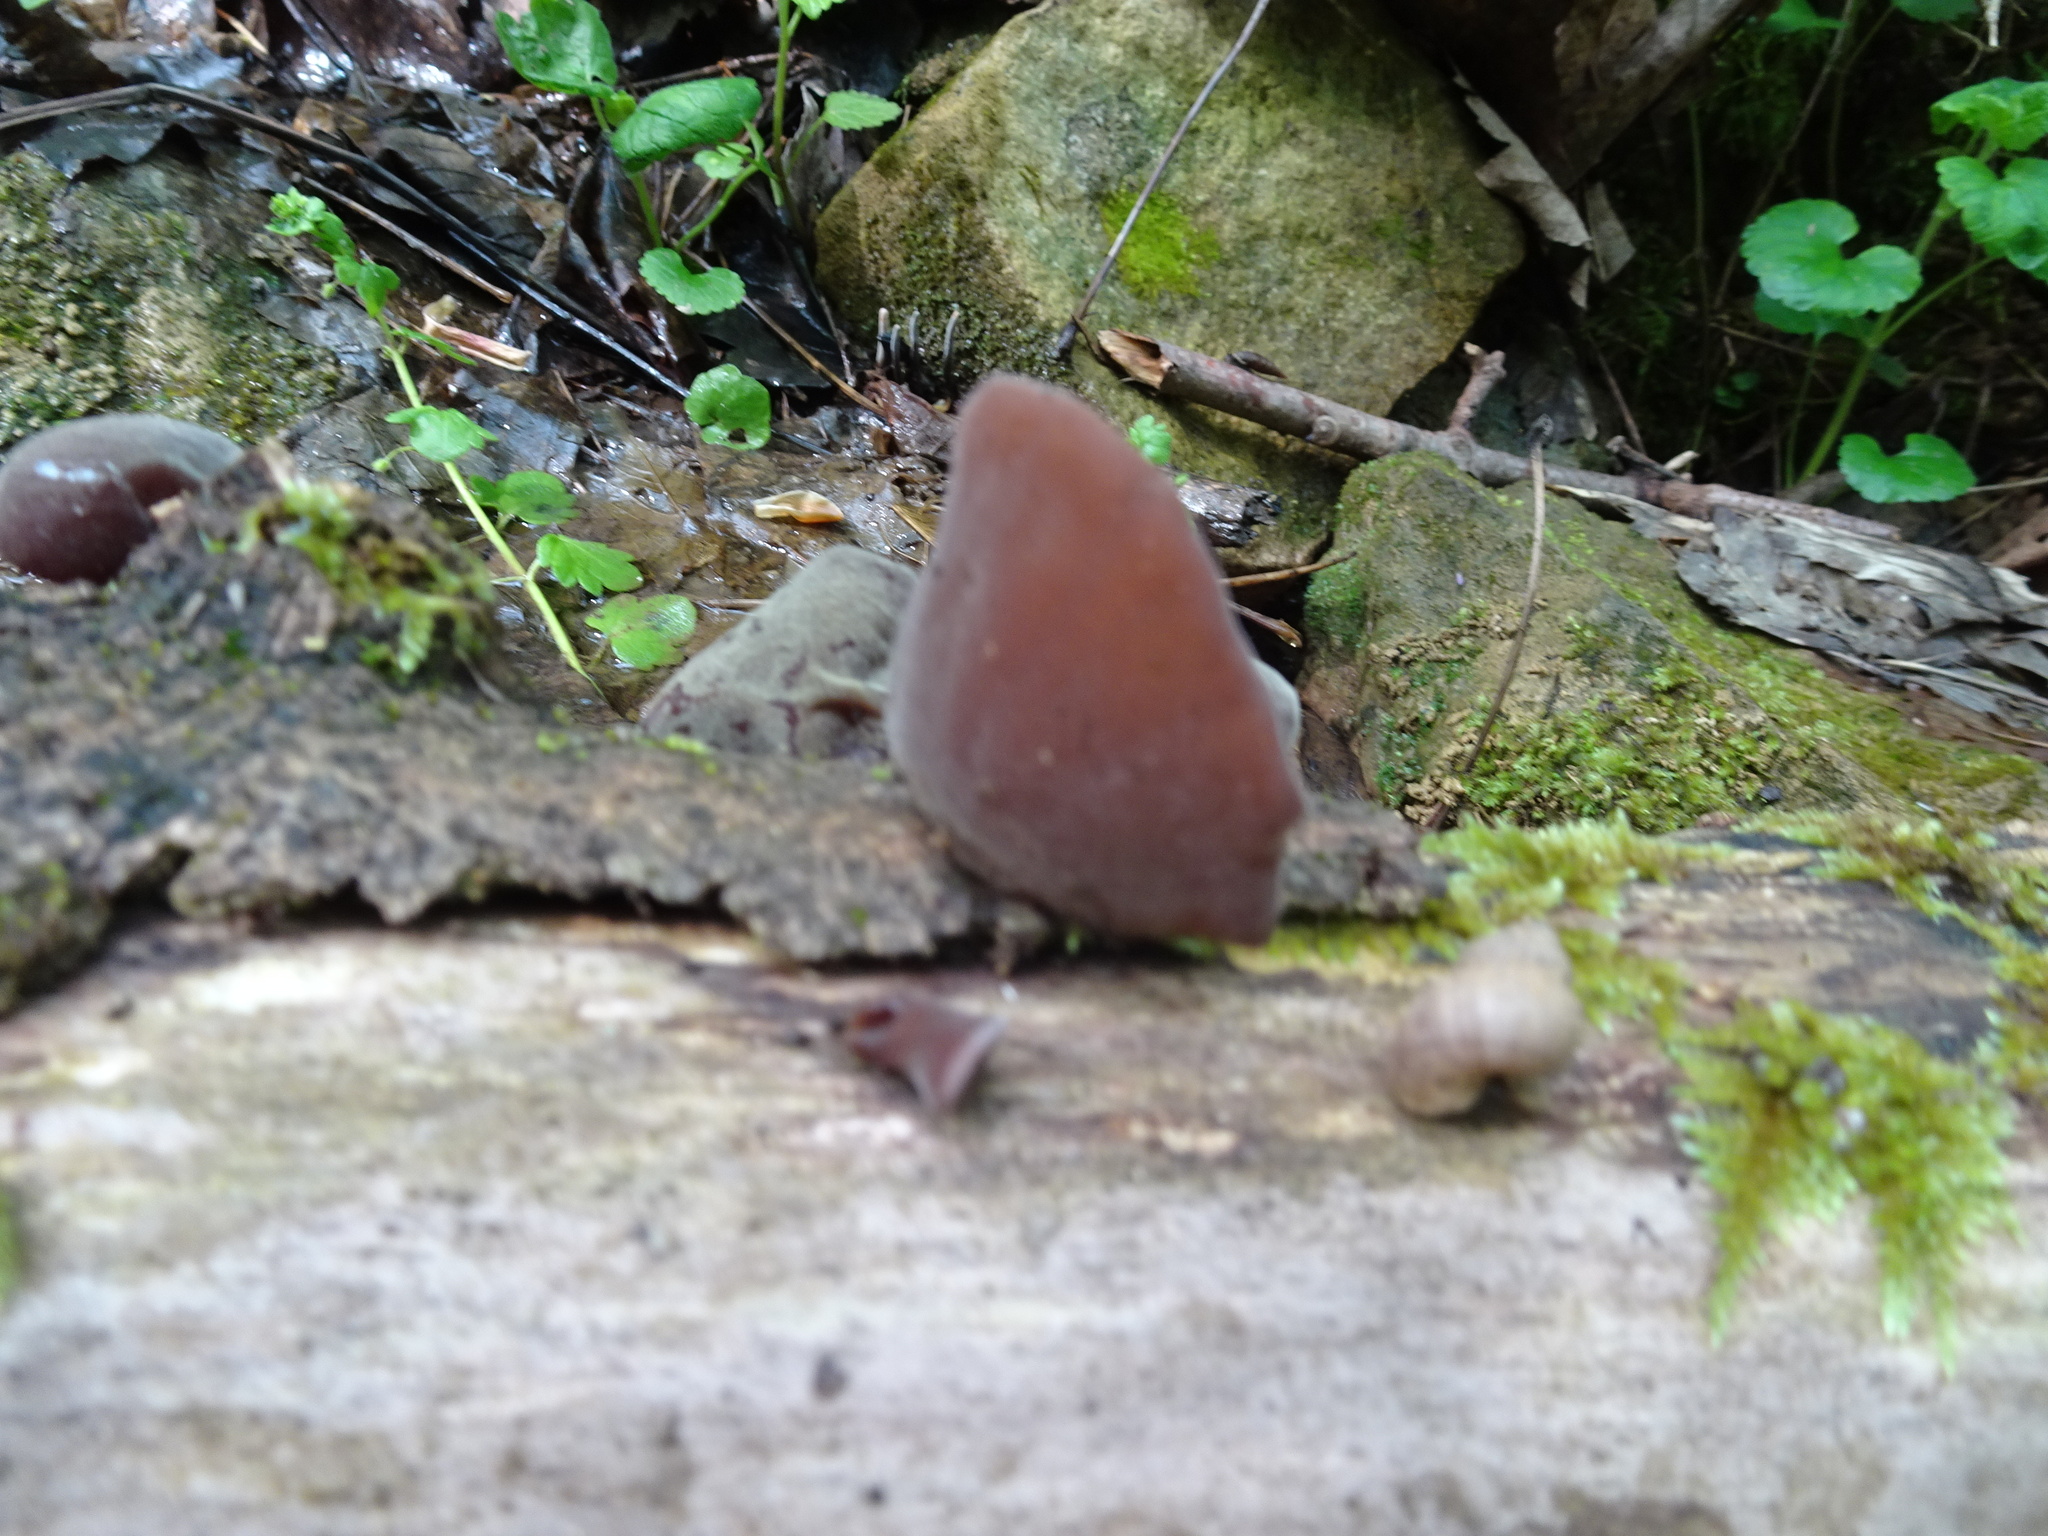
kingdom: Fungi
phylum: Basidiomycota
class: Agaricomycetes
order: Auriculariales
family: Auriculariaceae
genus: Auricularia
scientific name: Auricularia auricula-judae
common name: Jelly ear
